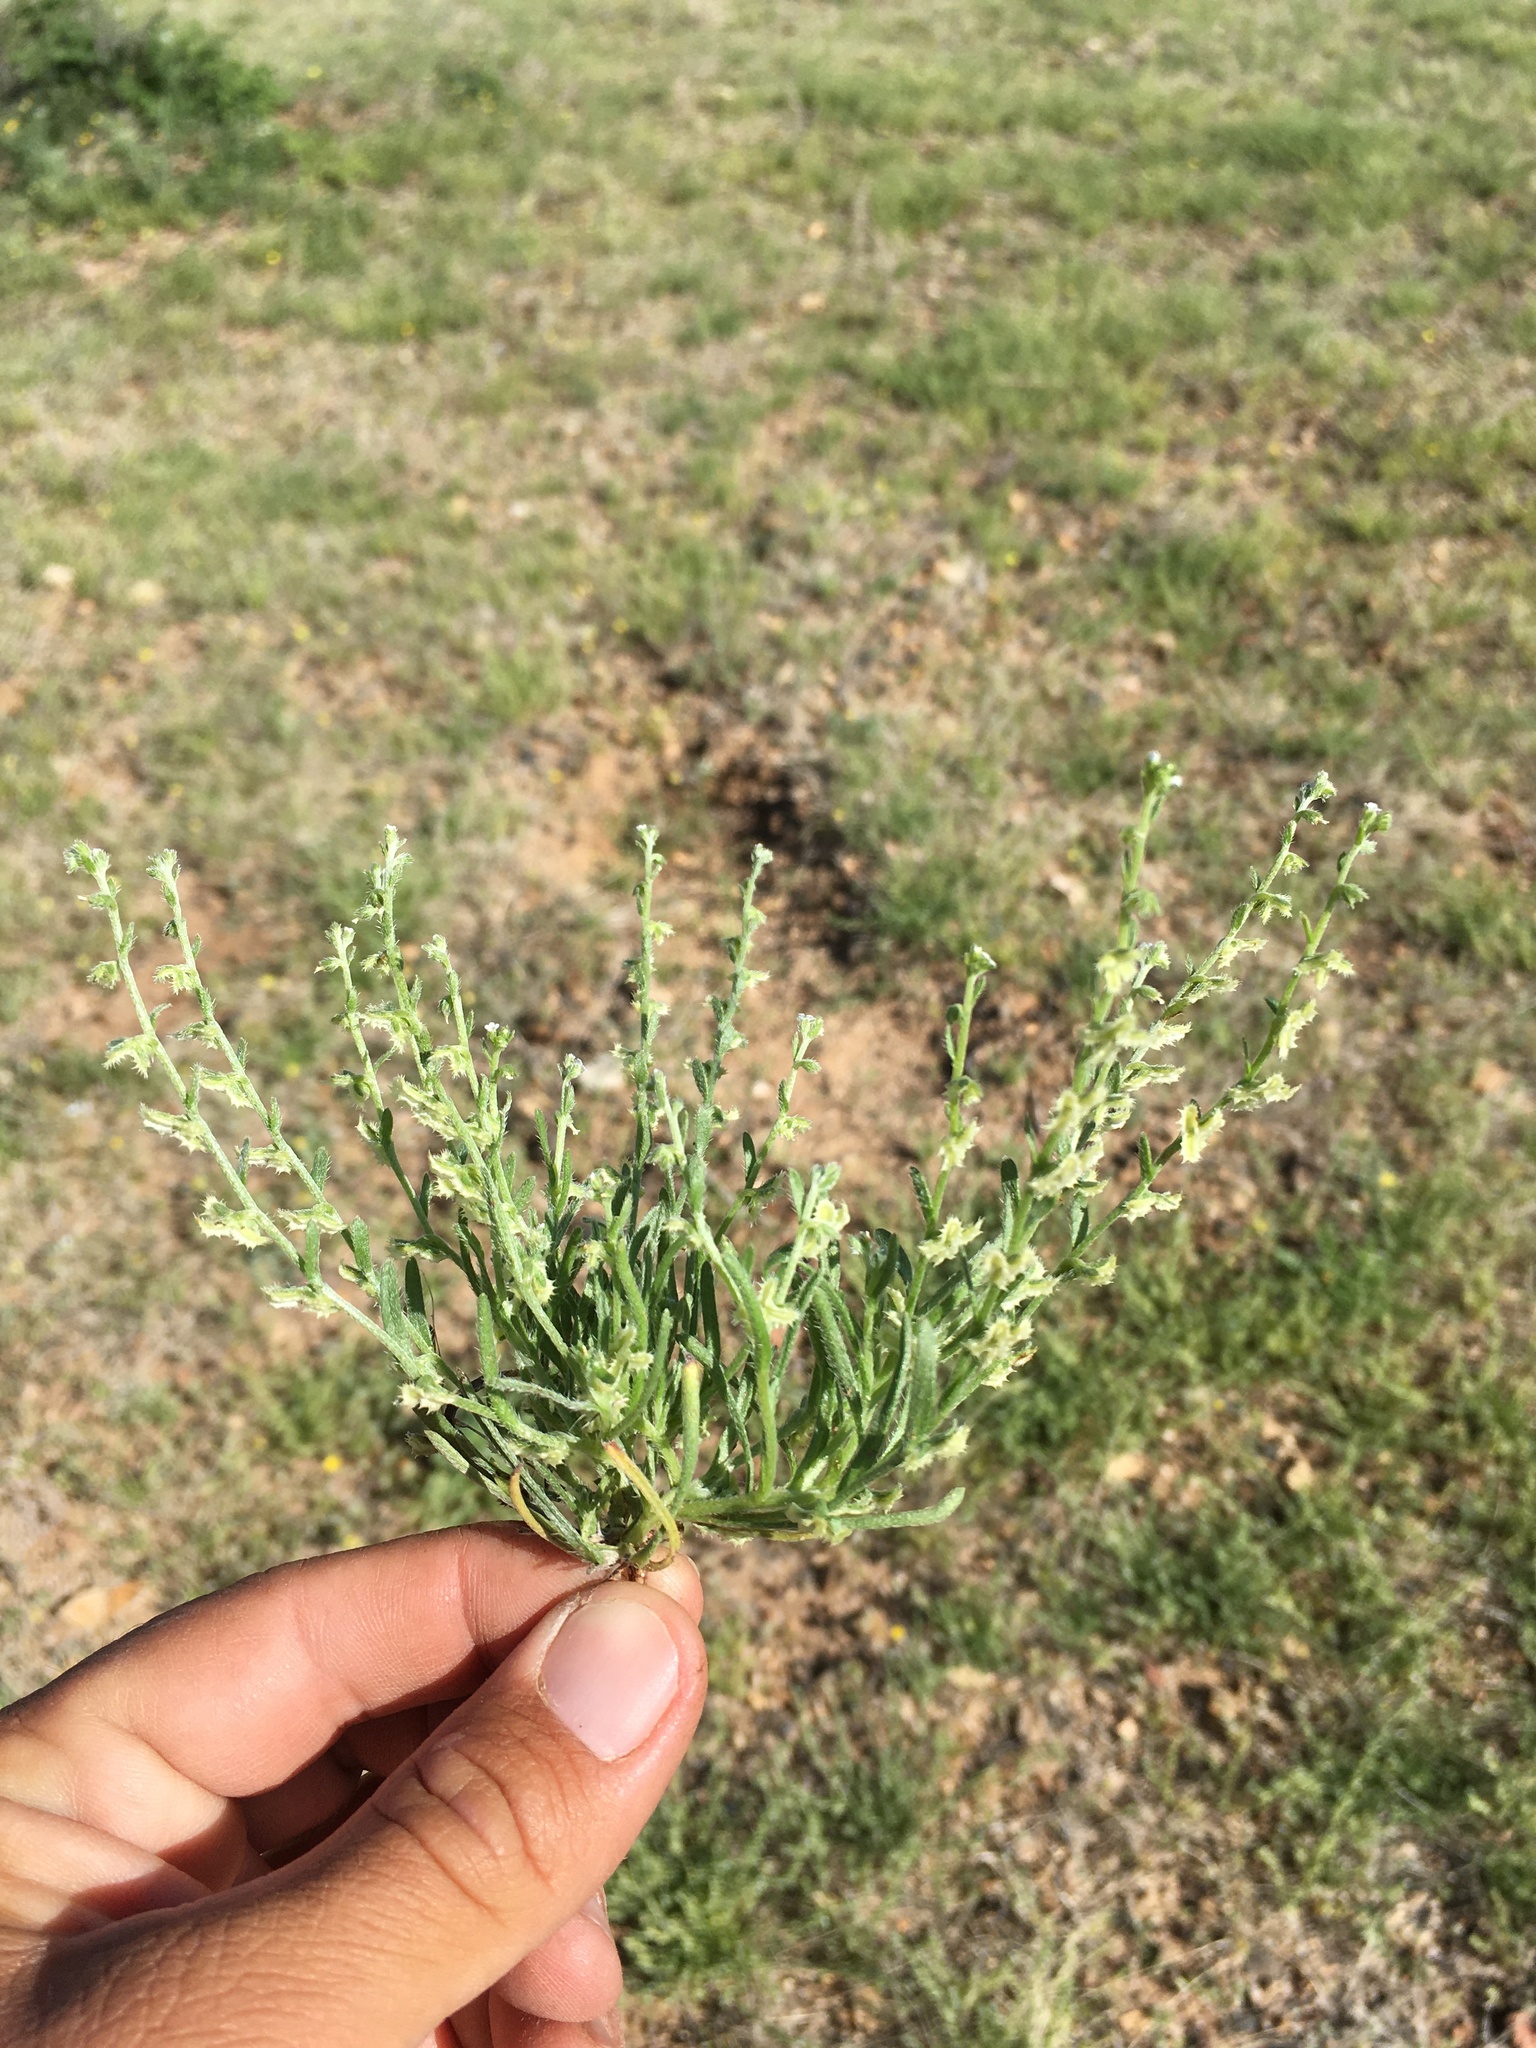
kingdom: Plantae
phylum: Tracheophyta
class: Magnoliopsida
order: Boraginales
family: Boraginaceae
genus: Pectocarya
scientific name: Pectocarya platycarpa
